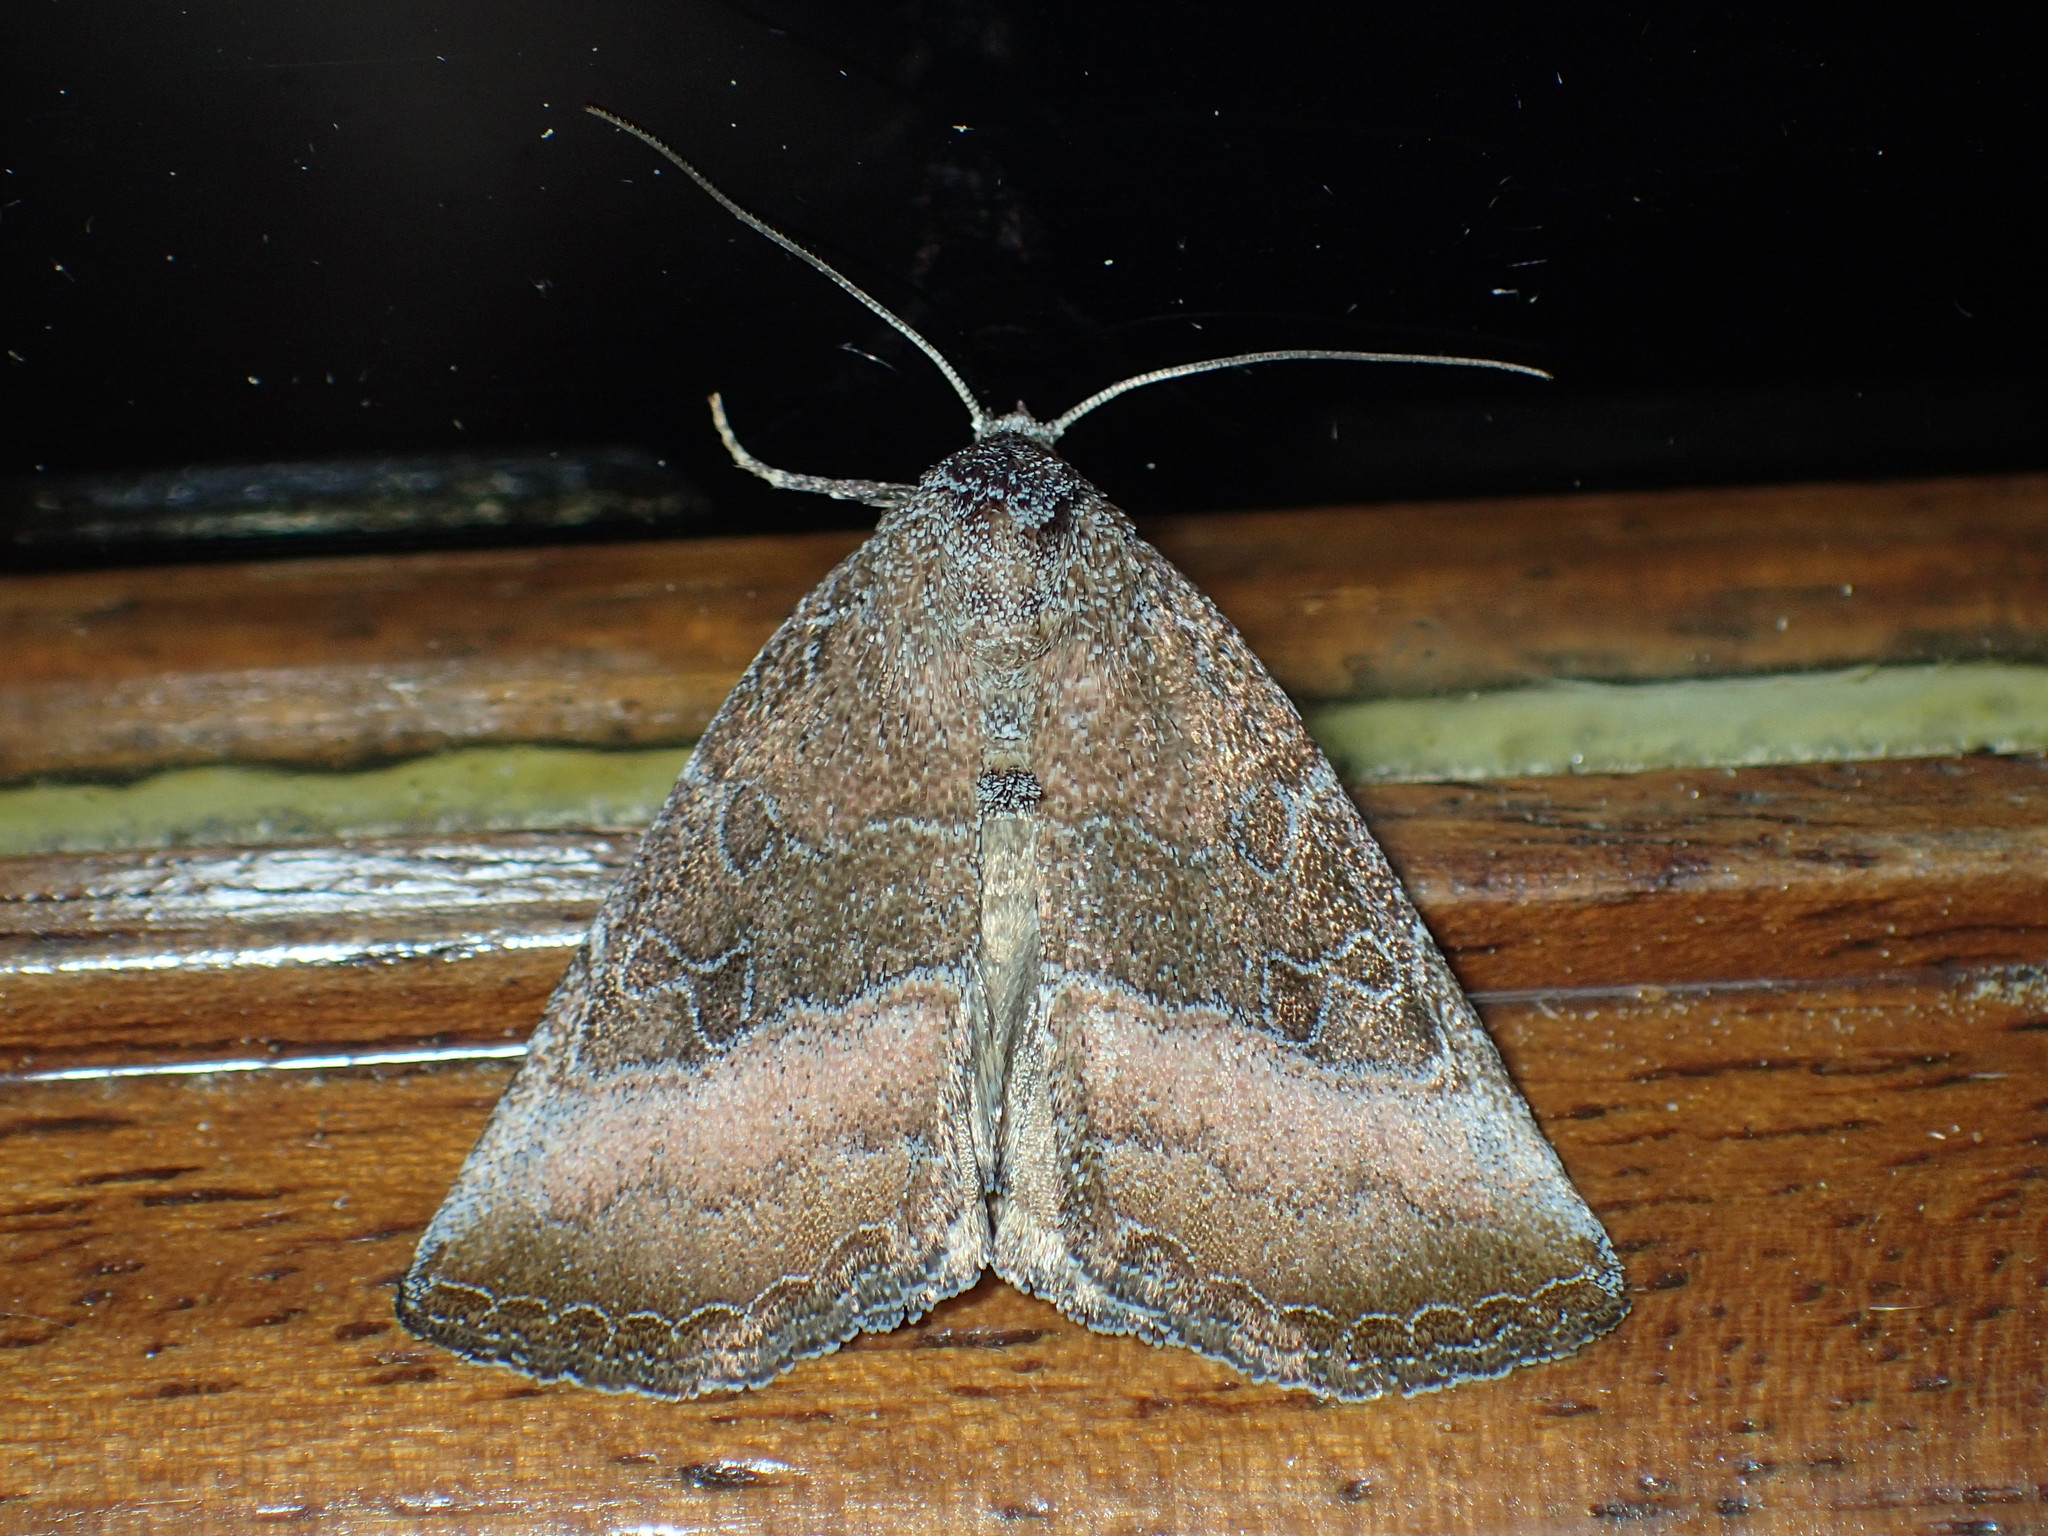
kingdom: Animalia
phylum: Arthropoda
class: Insecta
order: Lepidoptera
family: Noctuidae
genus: Ogdoconta
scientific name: Ogdoconta cinereola
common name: Common pinkband
